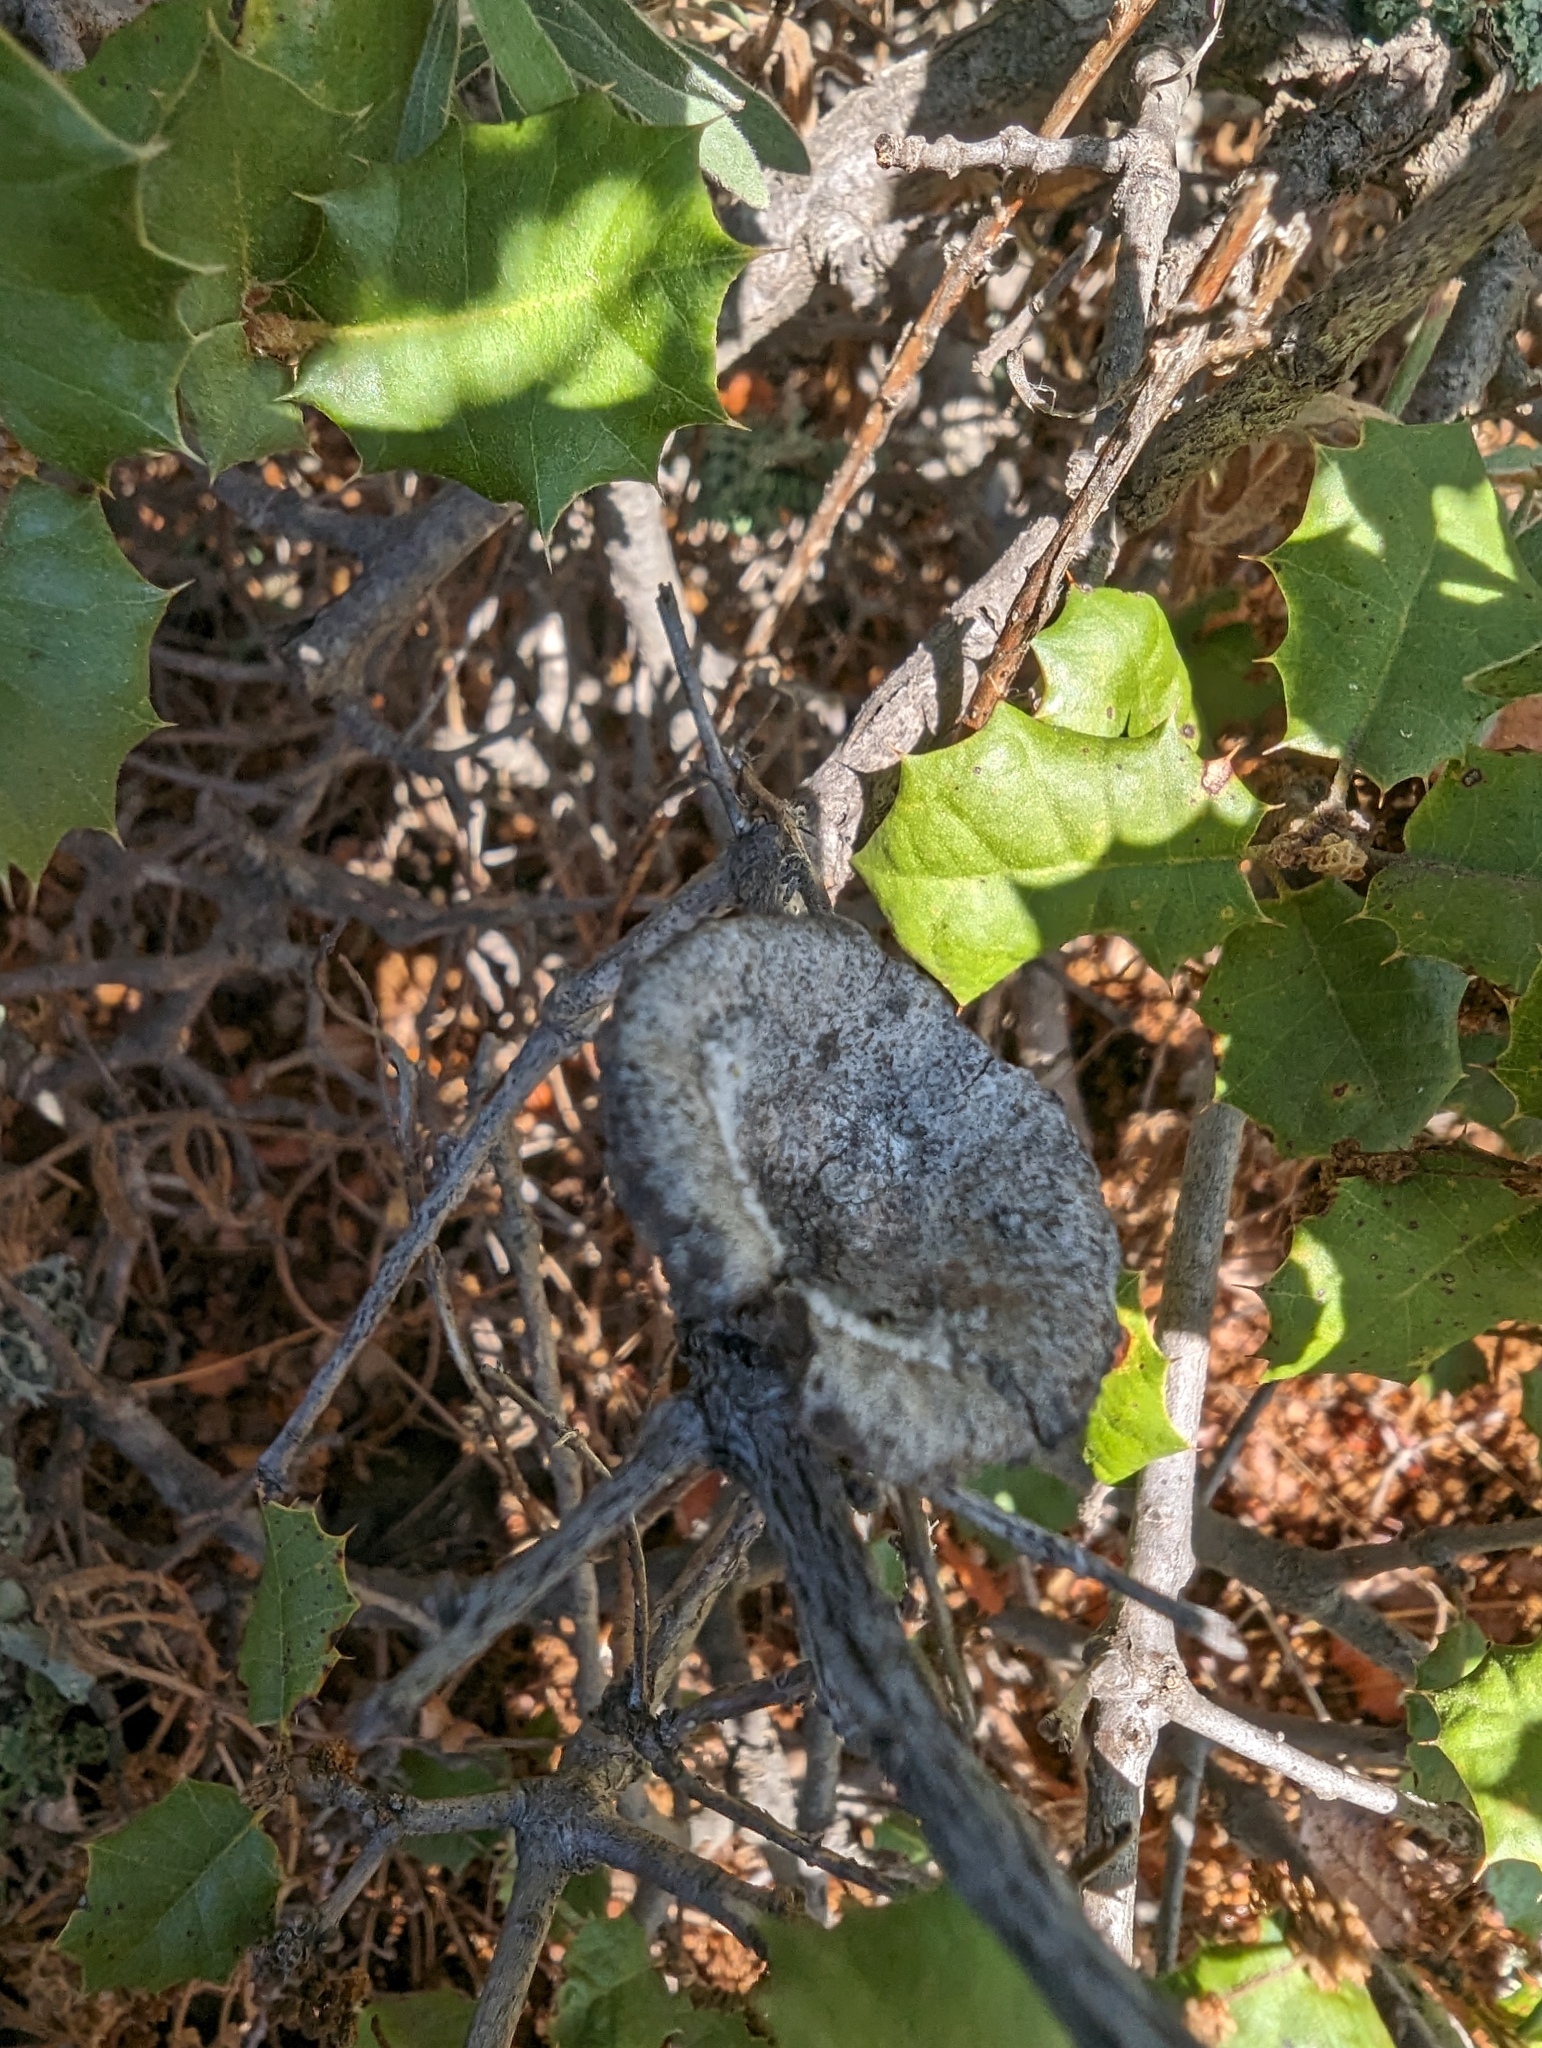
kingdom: Plantae
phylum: Tracheophyta
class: Magnoliopsida
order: Fagales
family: Fagaceae
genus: Quercus
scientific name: Quercus palmeri
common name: Dunn oak
